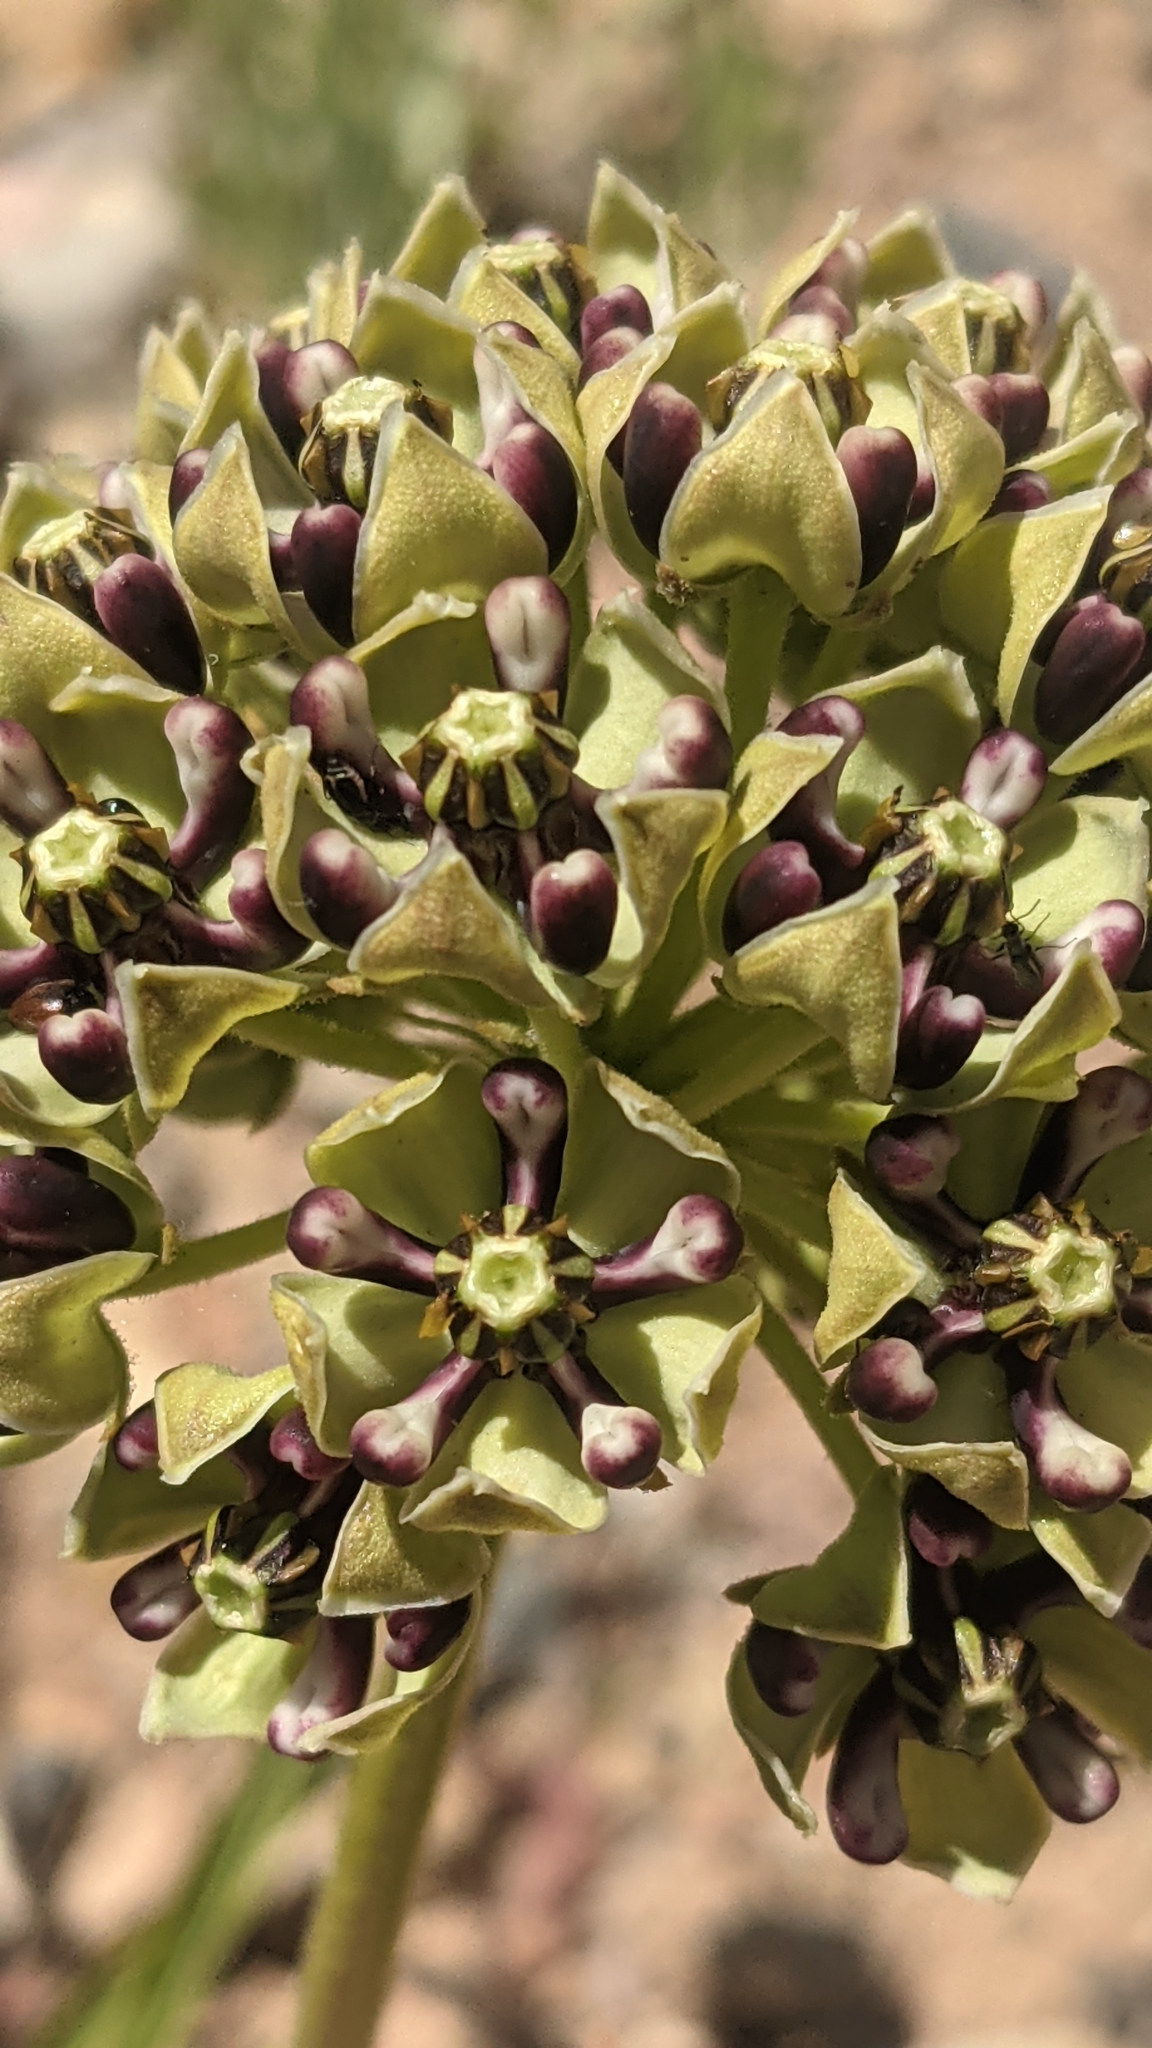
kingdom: Plantae
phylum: Tracheophyta
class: Magnoliopsida
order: Gentianales
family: Apocynaceae
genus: Asclepias
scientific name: Asclepias asperula
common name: Antelope horns
